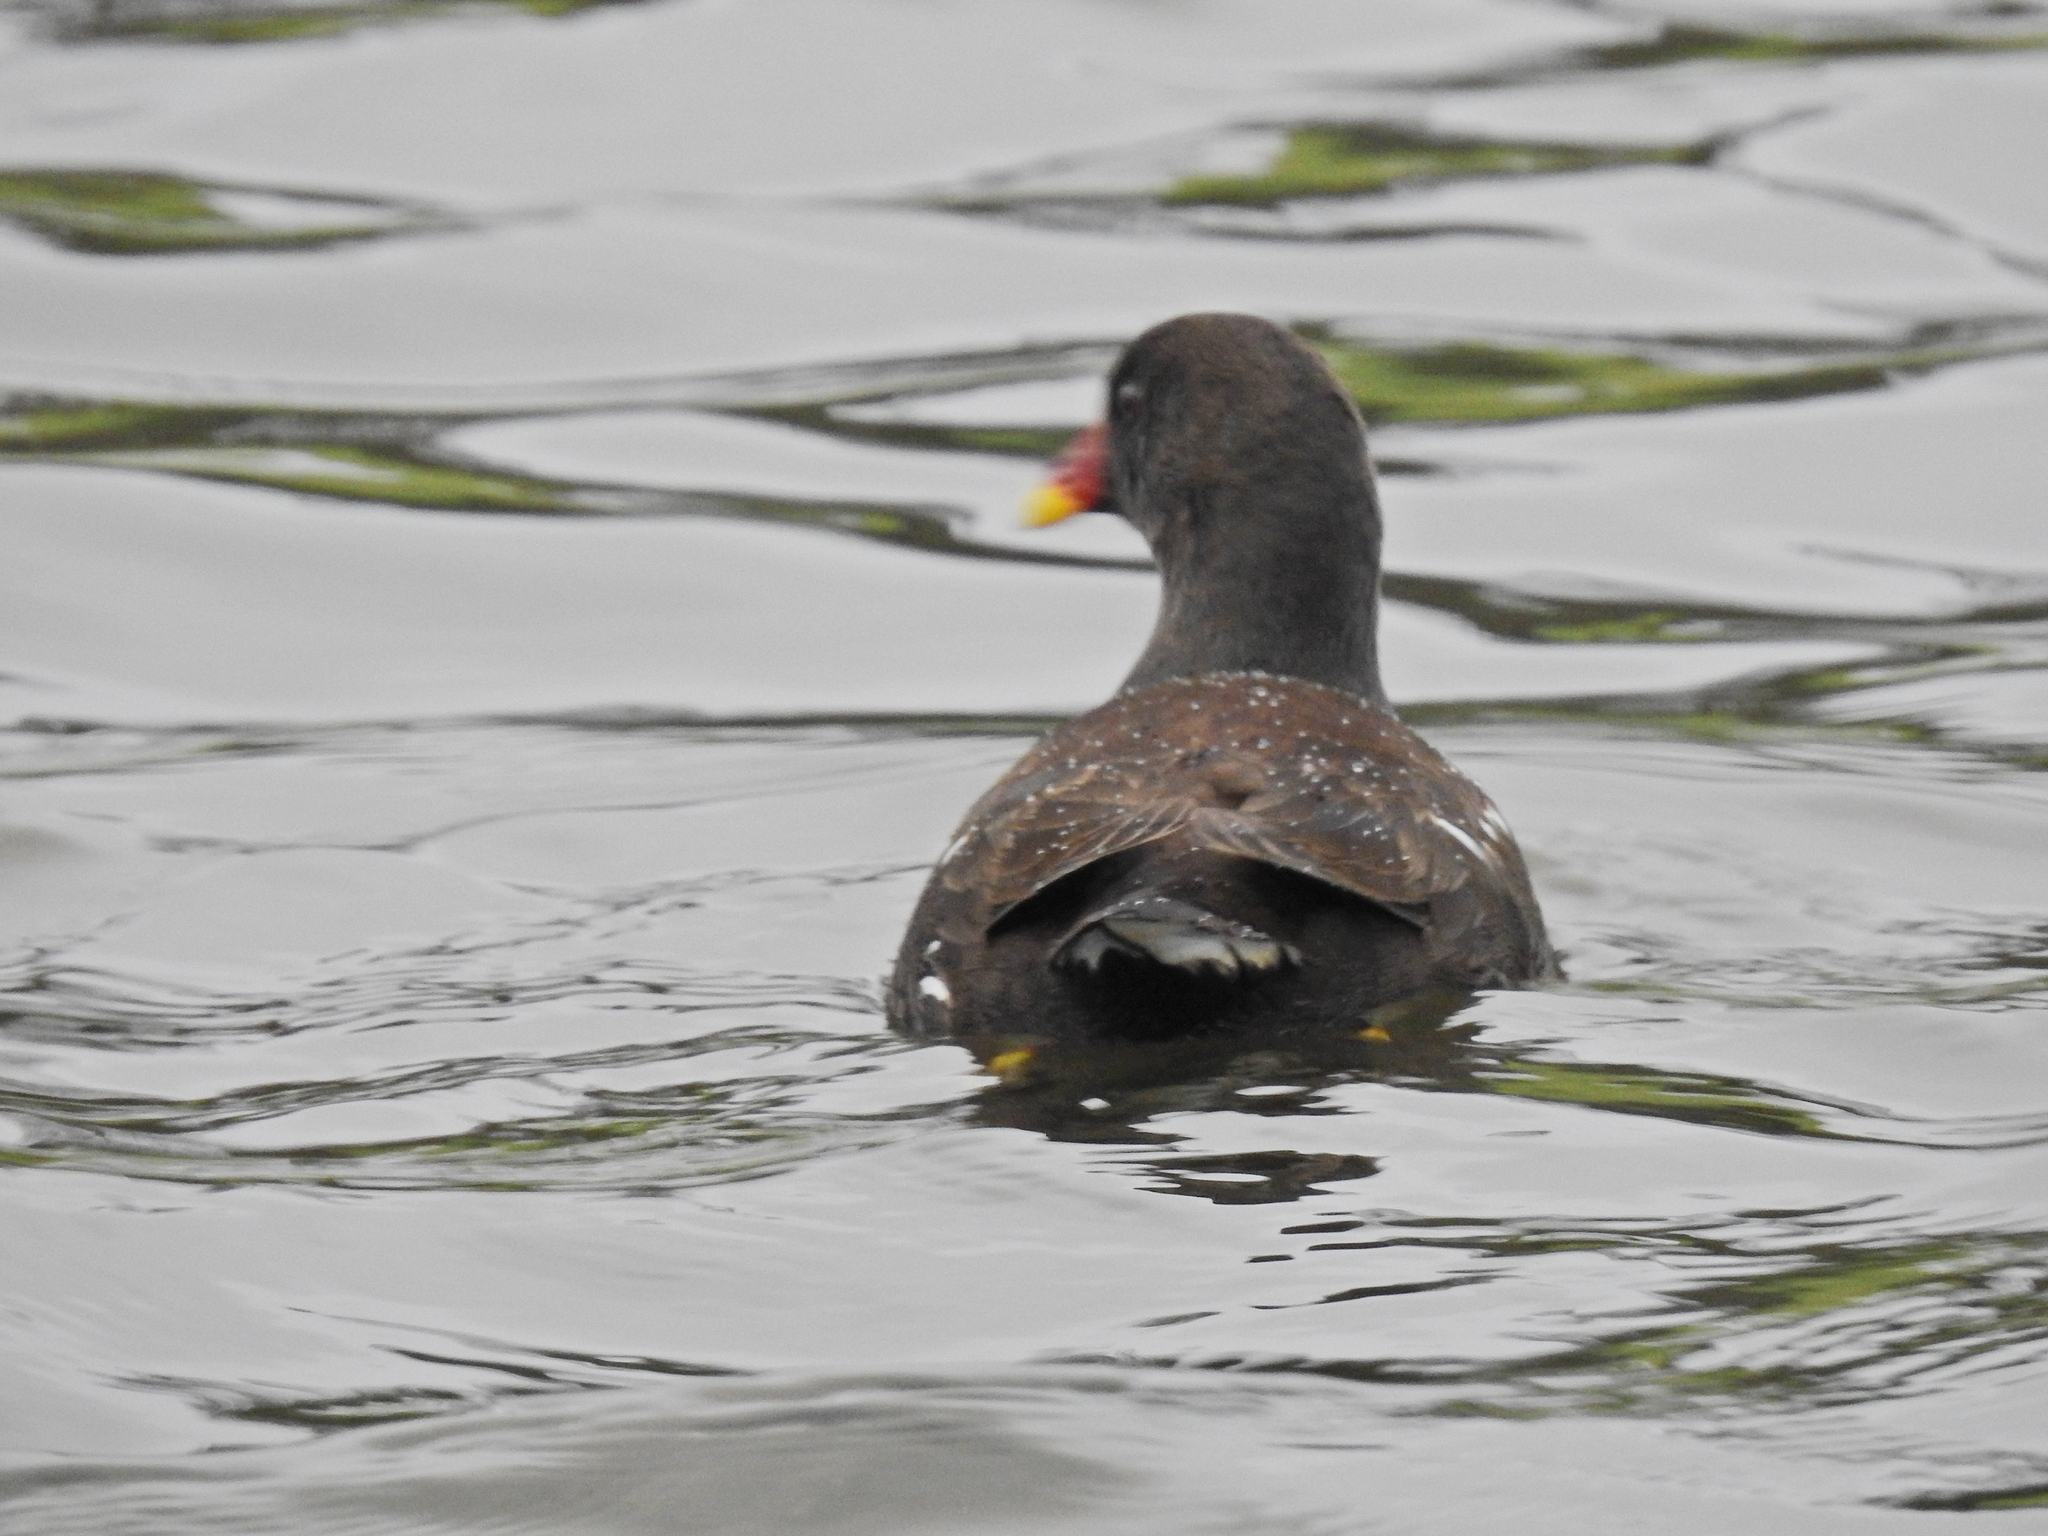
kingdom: Animalia
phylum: Chordata
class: Aves
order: Gruiformes
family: Rallidae
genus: Gallinula
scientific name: Gallinula chloropus
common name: Common moorhen
